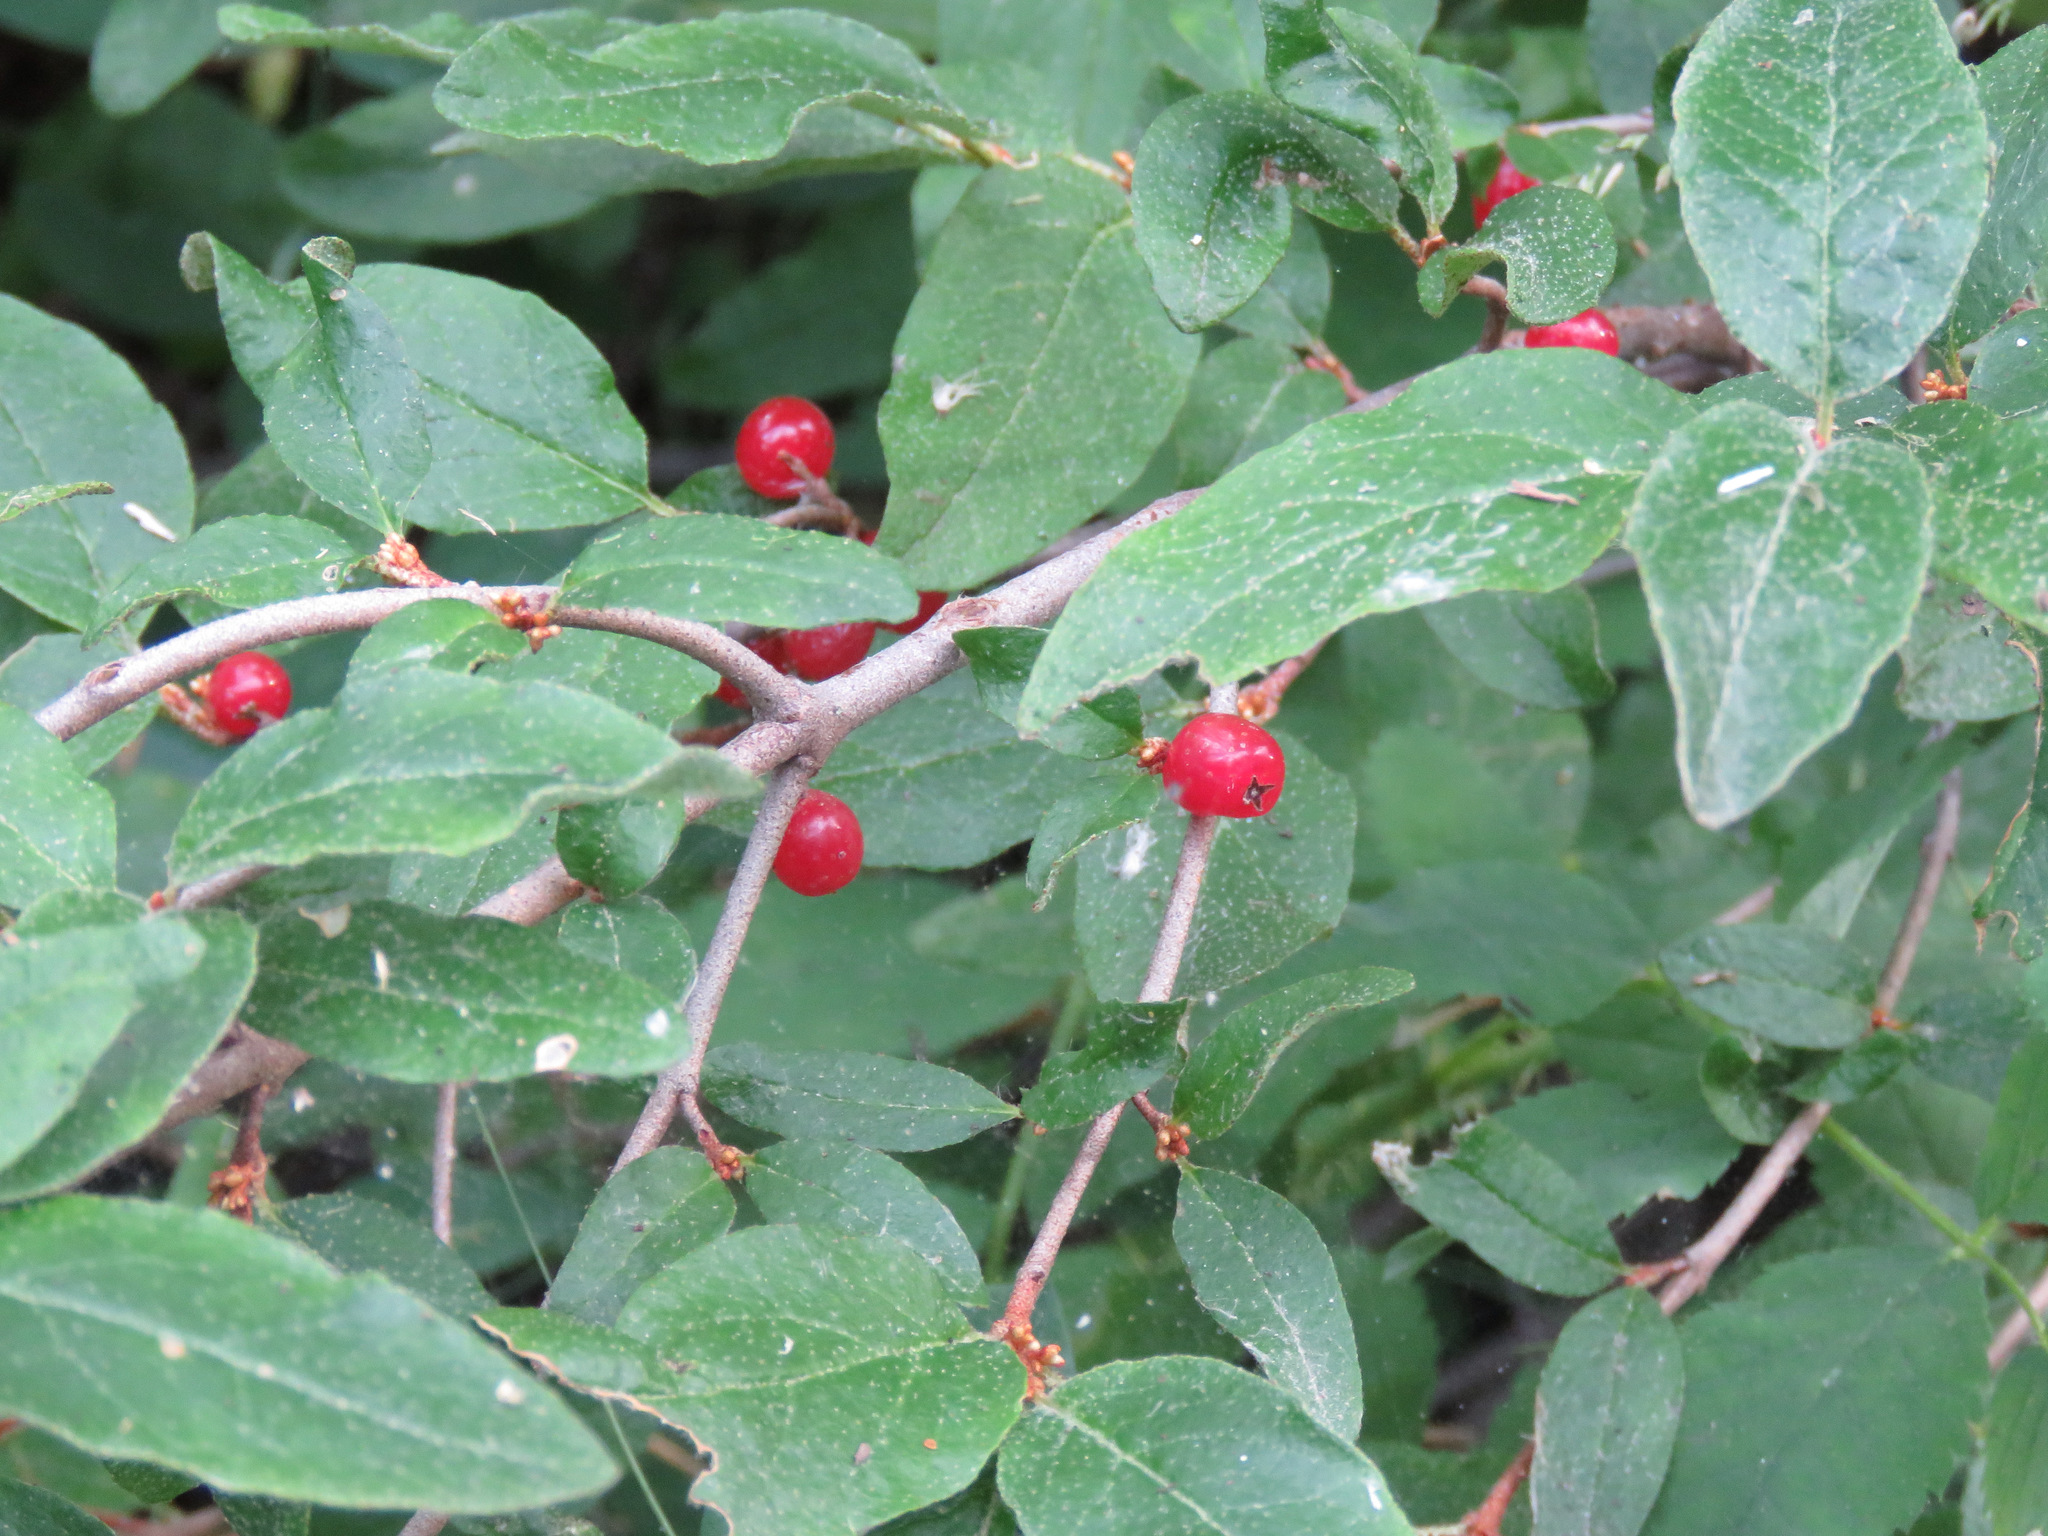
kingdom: Plantae
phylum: Tracheophyta
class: Magnoliopsida
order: Rosales
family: Elaeagnaceae
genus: Shepherdia
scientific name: Shepherdia canadensis
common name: Soapberry
